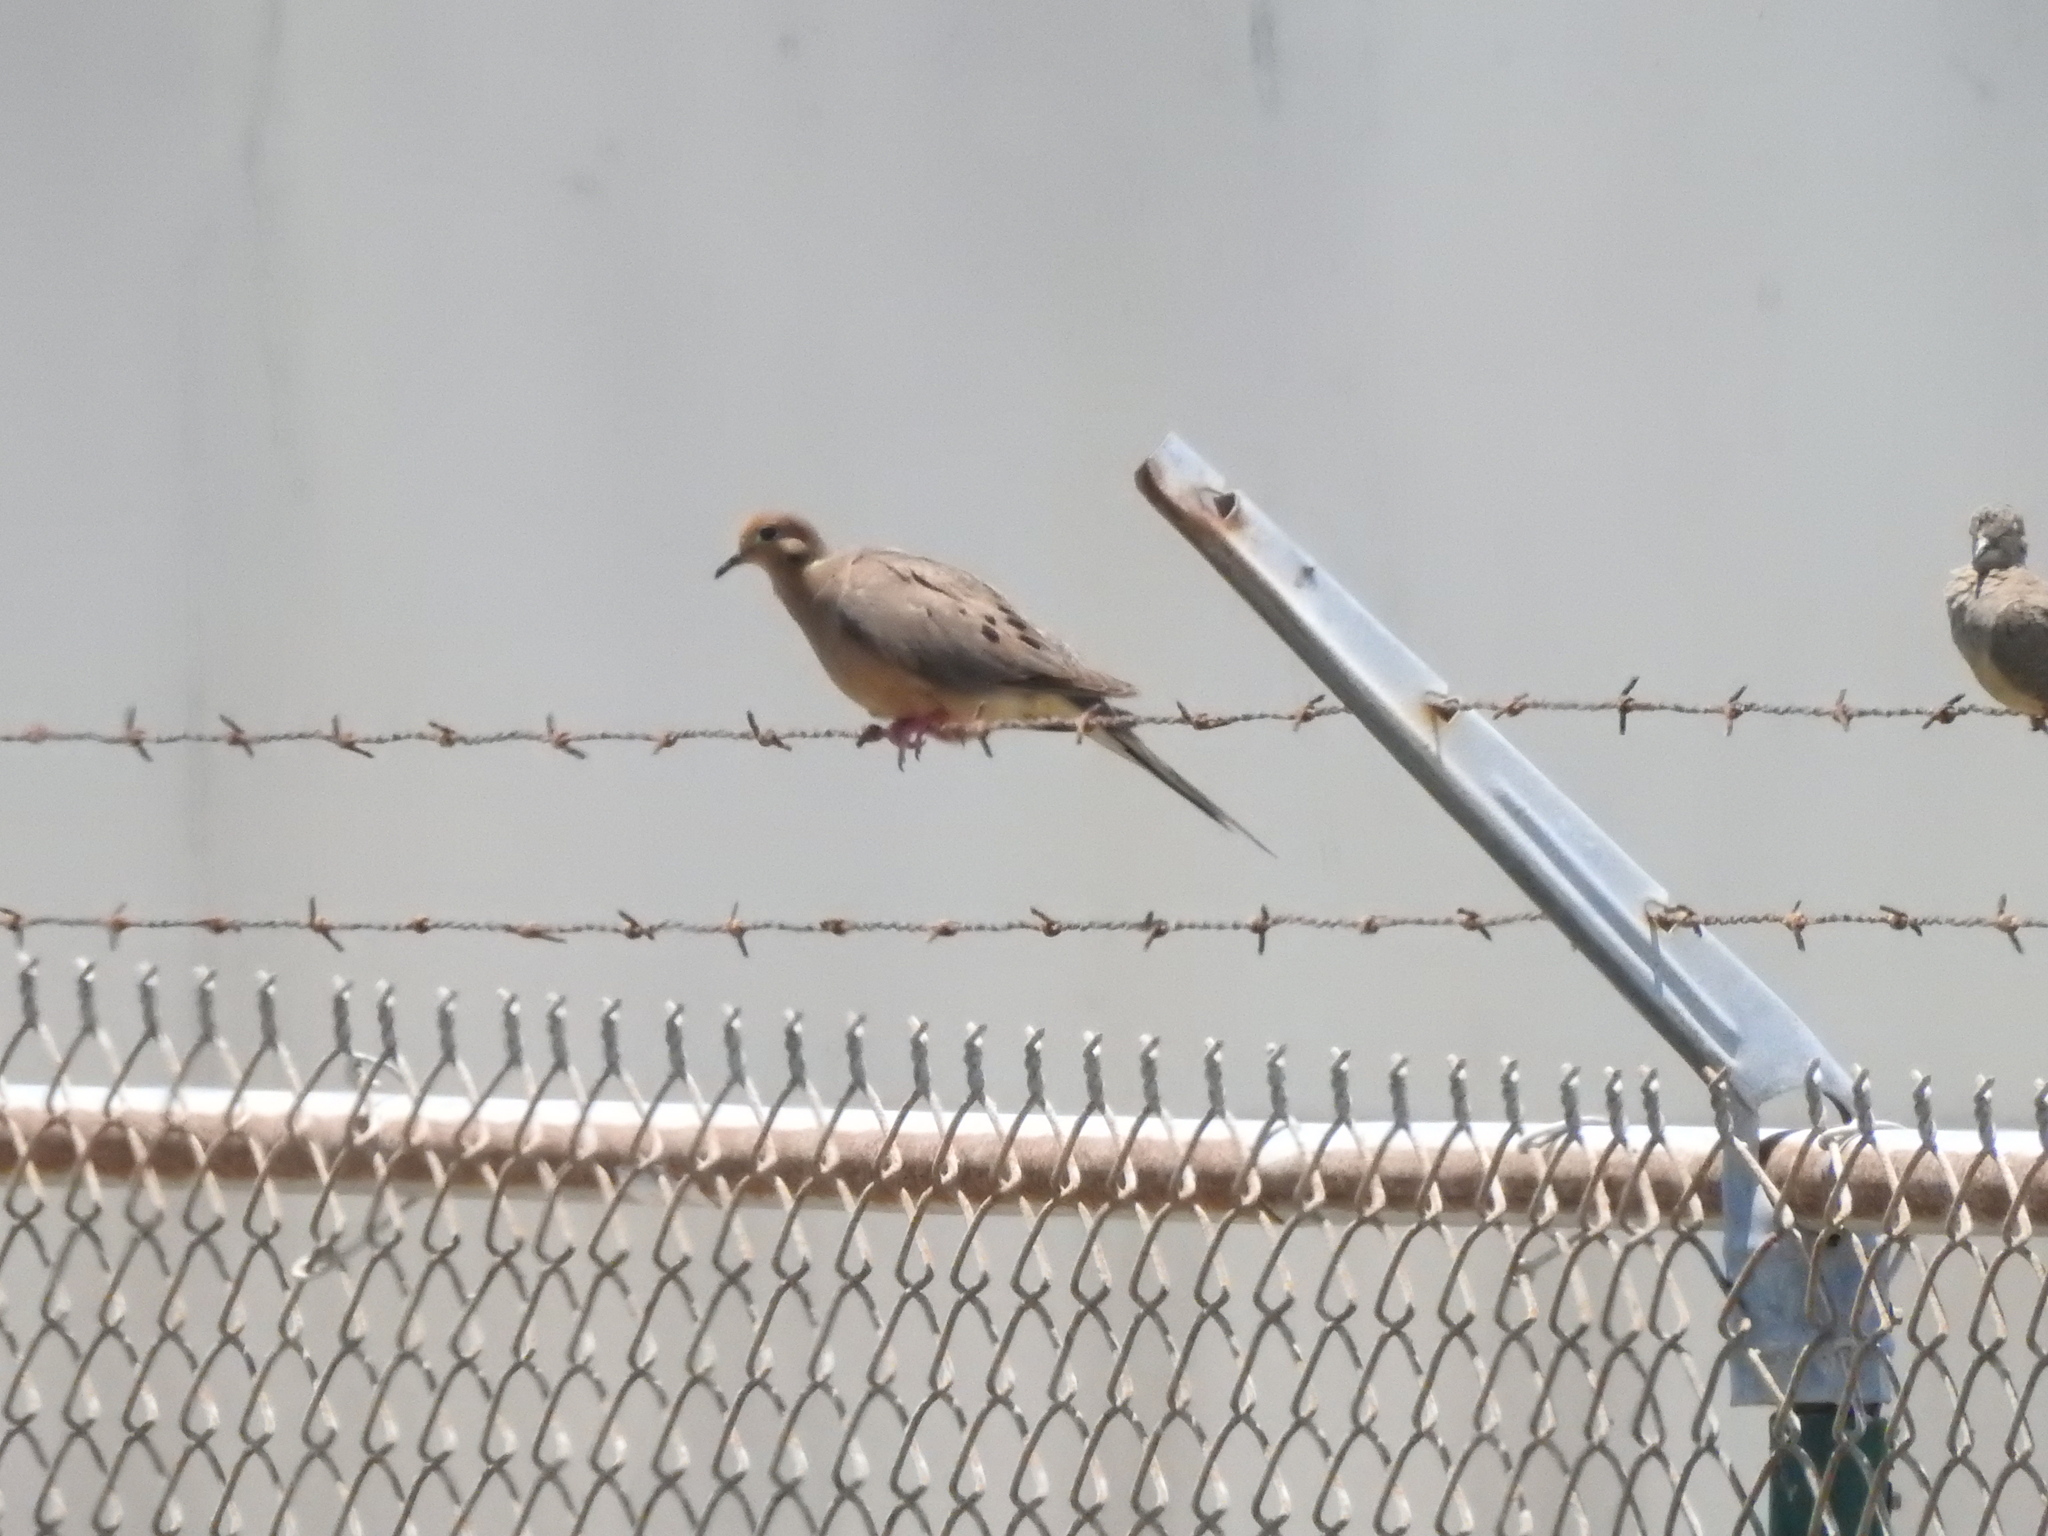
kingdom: Animalia
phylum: Chordata
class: Aves
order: Columbiformes
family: Columbidae
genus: Zenaida
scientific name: Zenaida macroura
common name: Mourning dove
